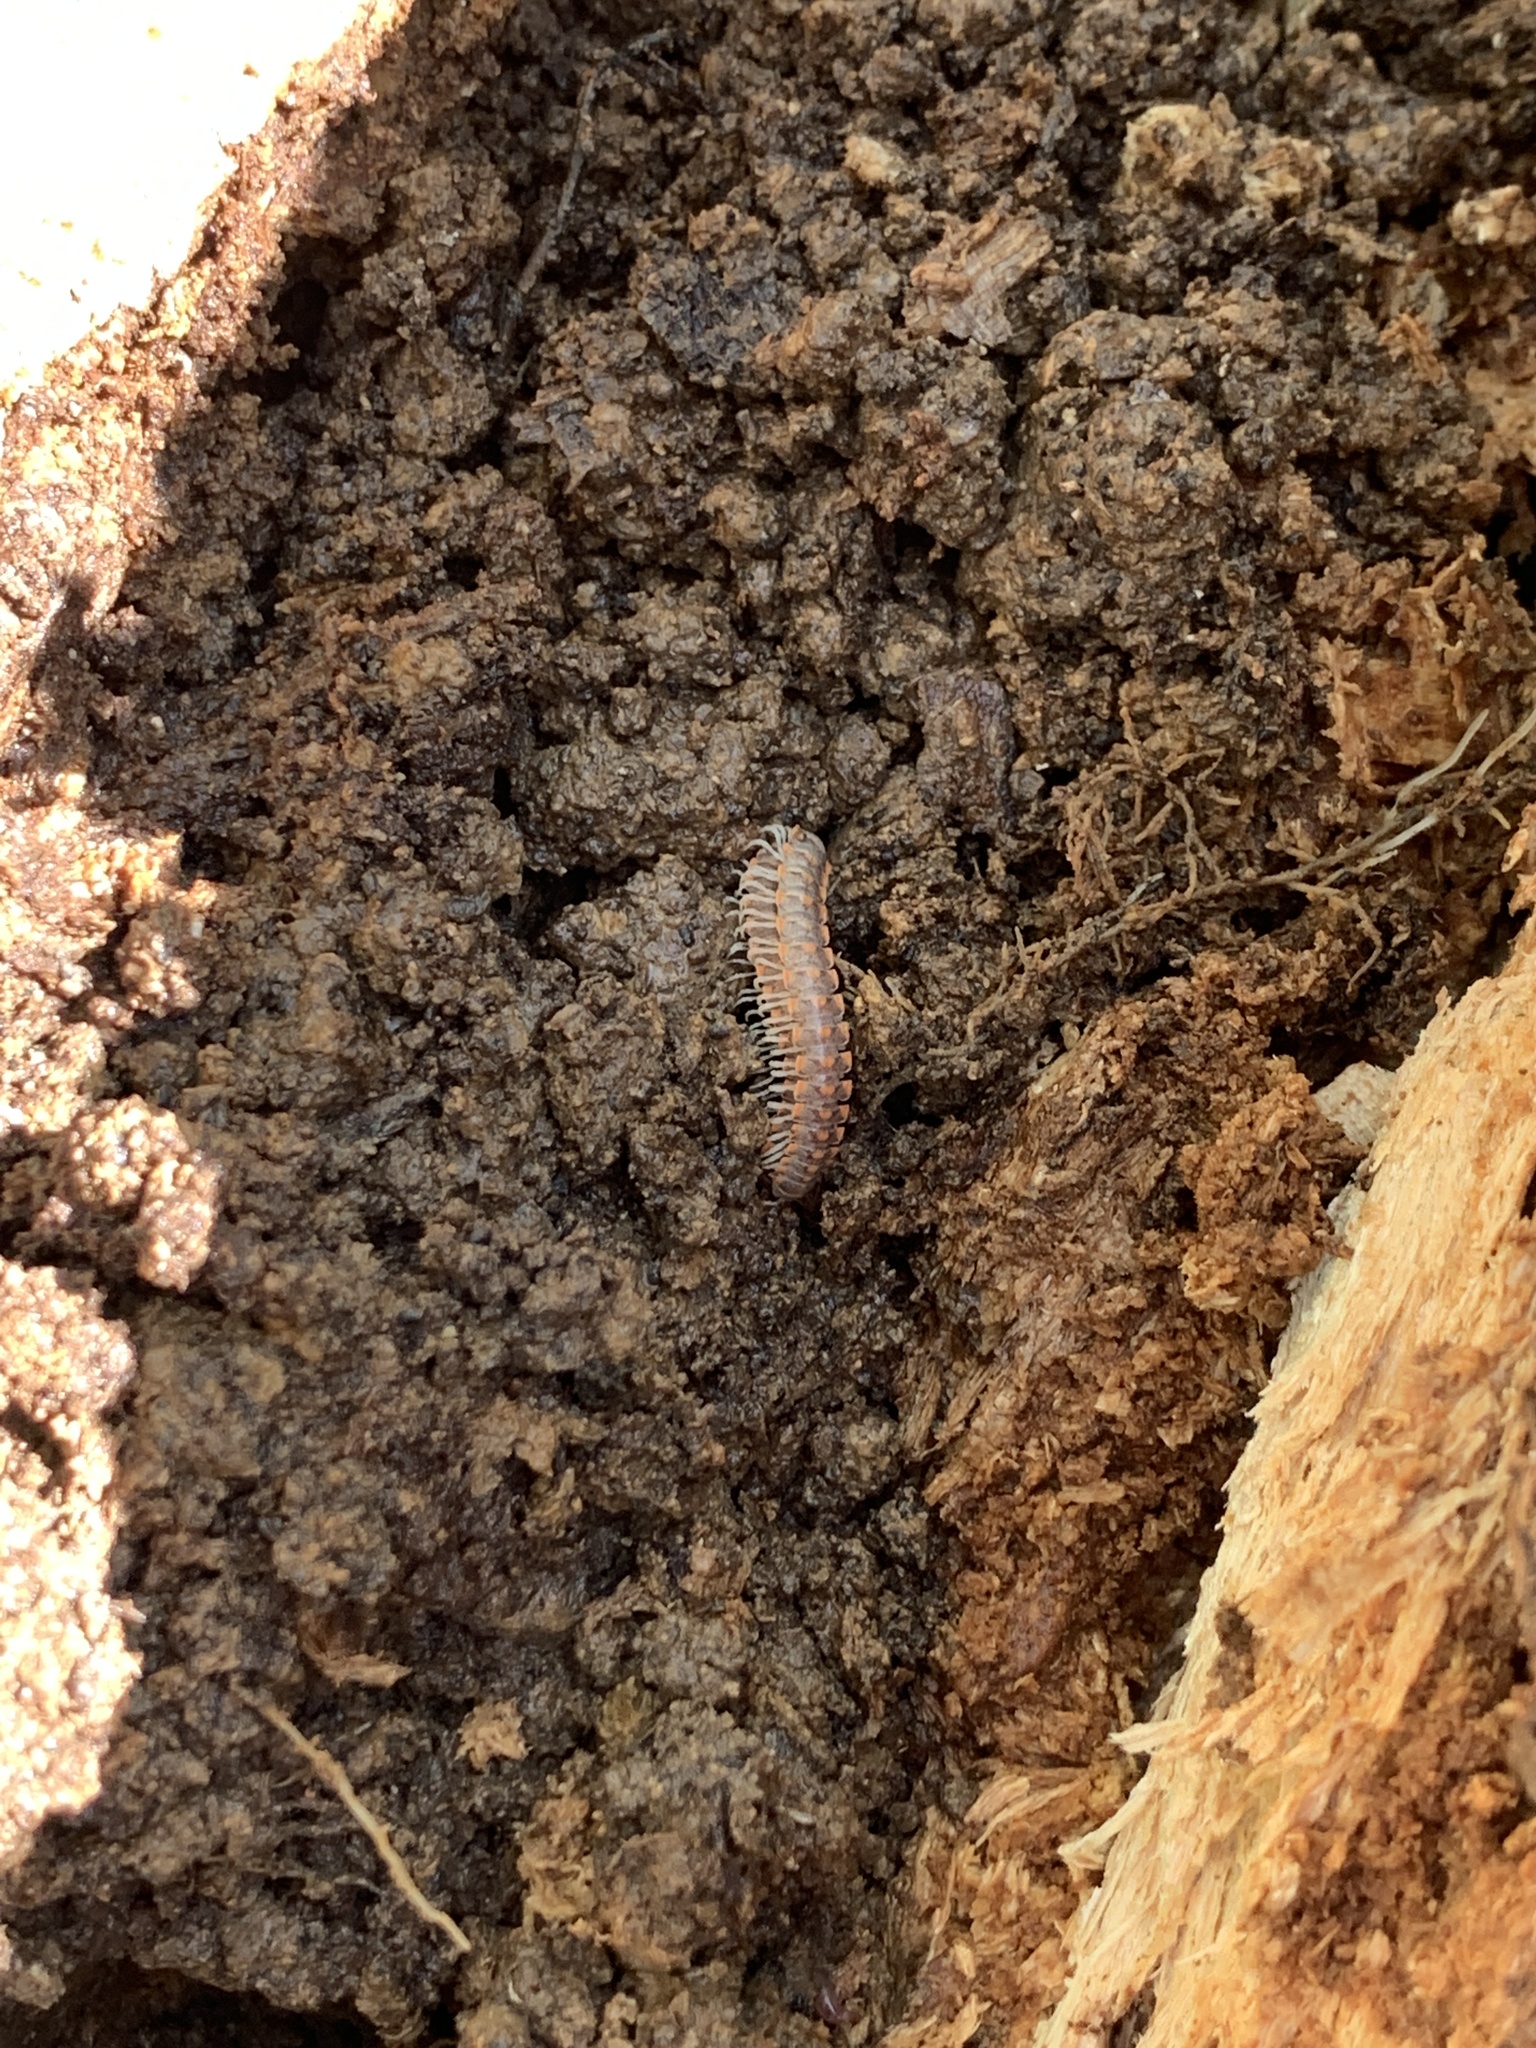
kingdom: Animalia
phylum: Arthropoda
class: Diplopoda
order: Polydesmida
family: Xystodesmidae
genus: Euryurus
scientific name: Euryurus leachii
